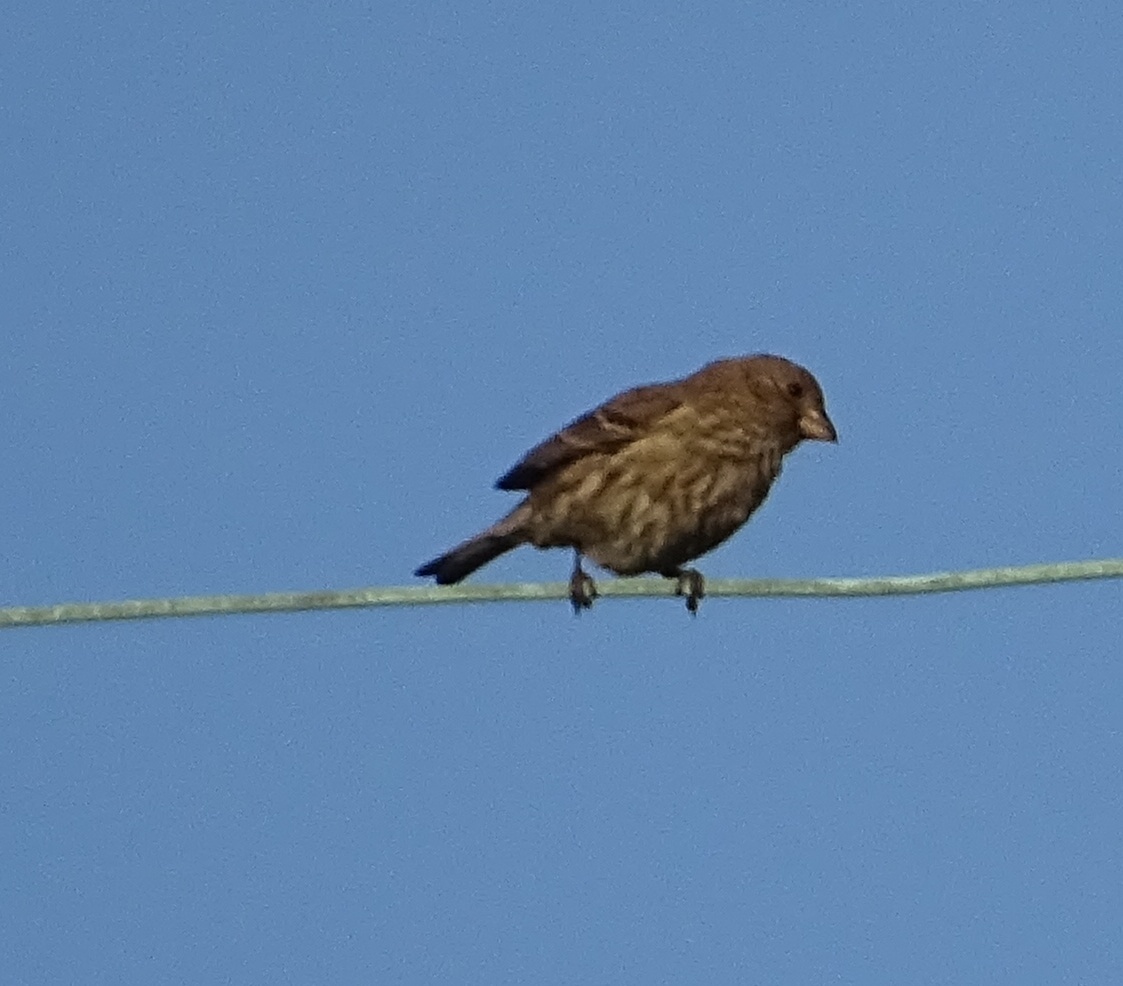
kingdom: Animalia
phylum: Chordata
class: Aves
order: Passeriformes
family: Fringillidae
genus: Haemorhous
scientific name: Haemorhous mexicanus
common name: House finch
